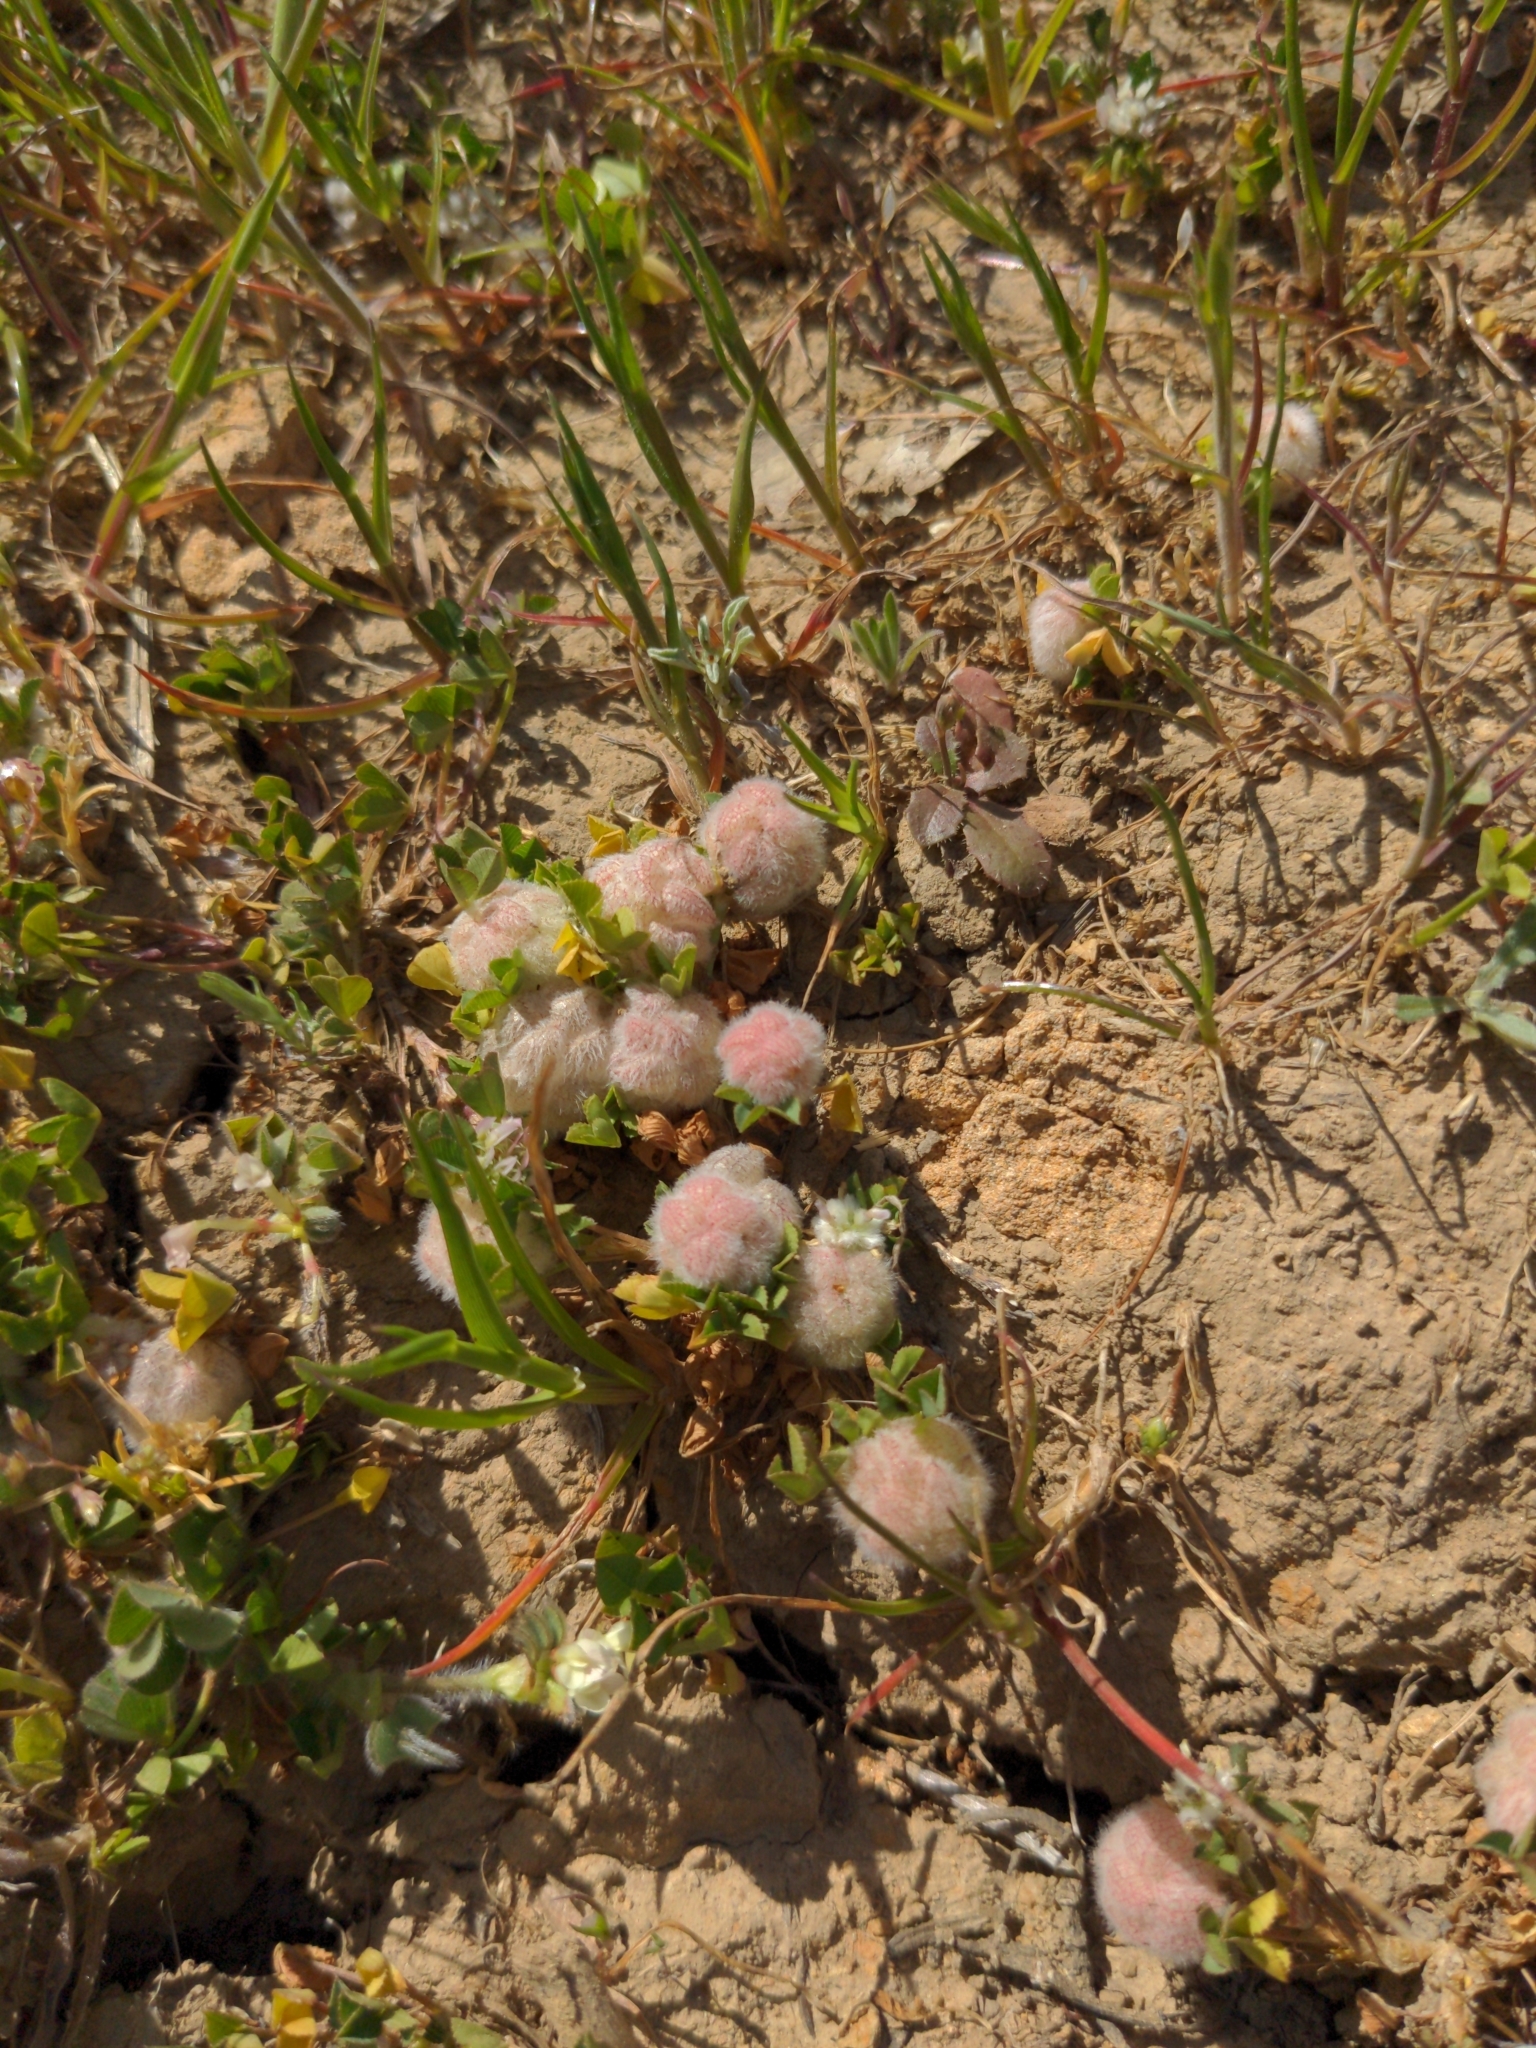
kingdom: Plantae
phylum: Tracheophyta
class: Magnoliopsida
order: Fabales
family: Fabaceae
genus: Trifolium
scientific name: Trifolium tomentosum
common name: Woolly clover
